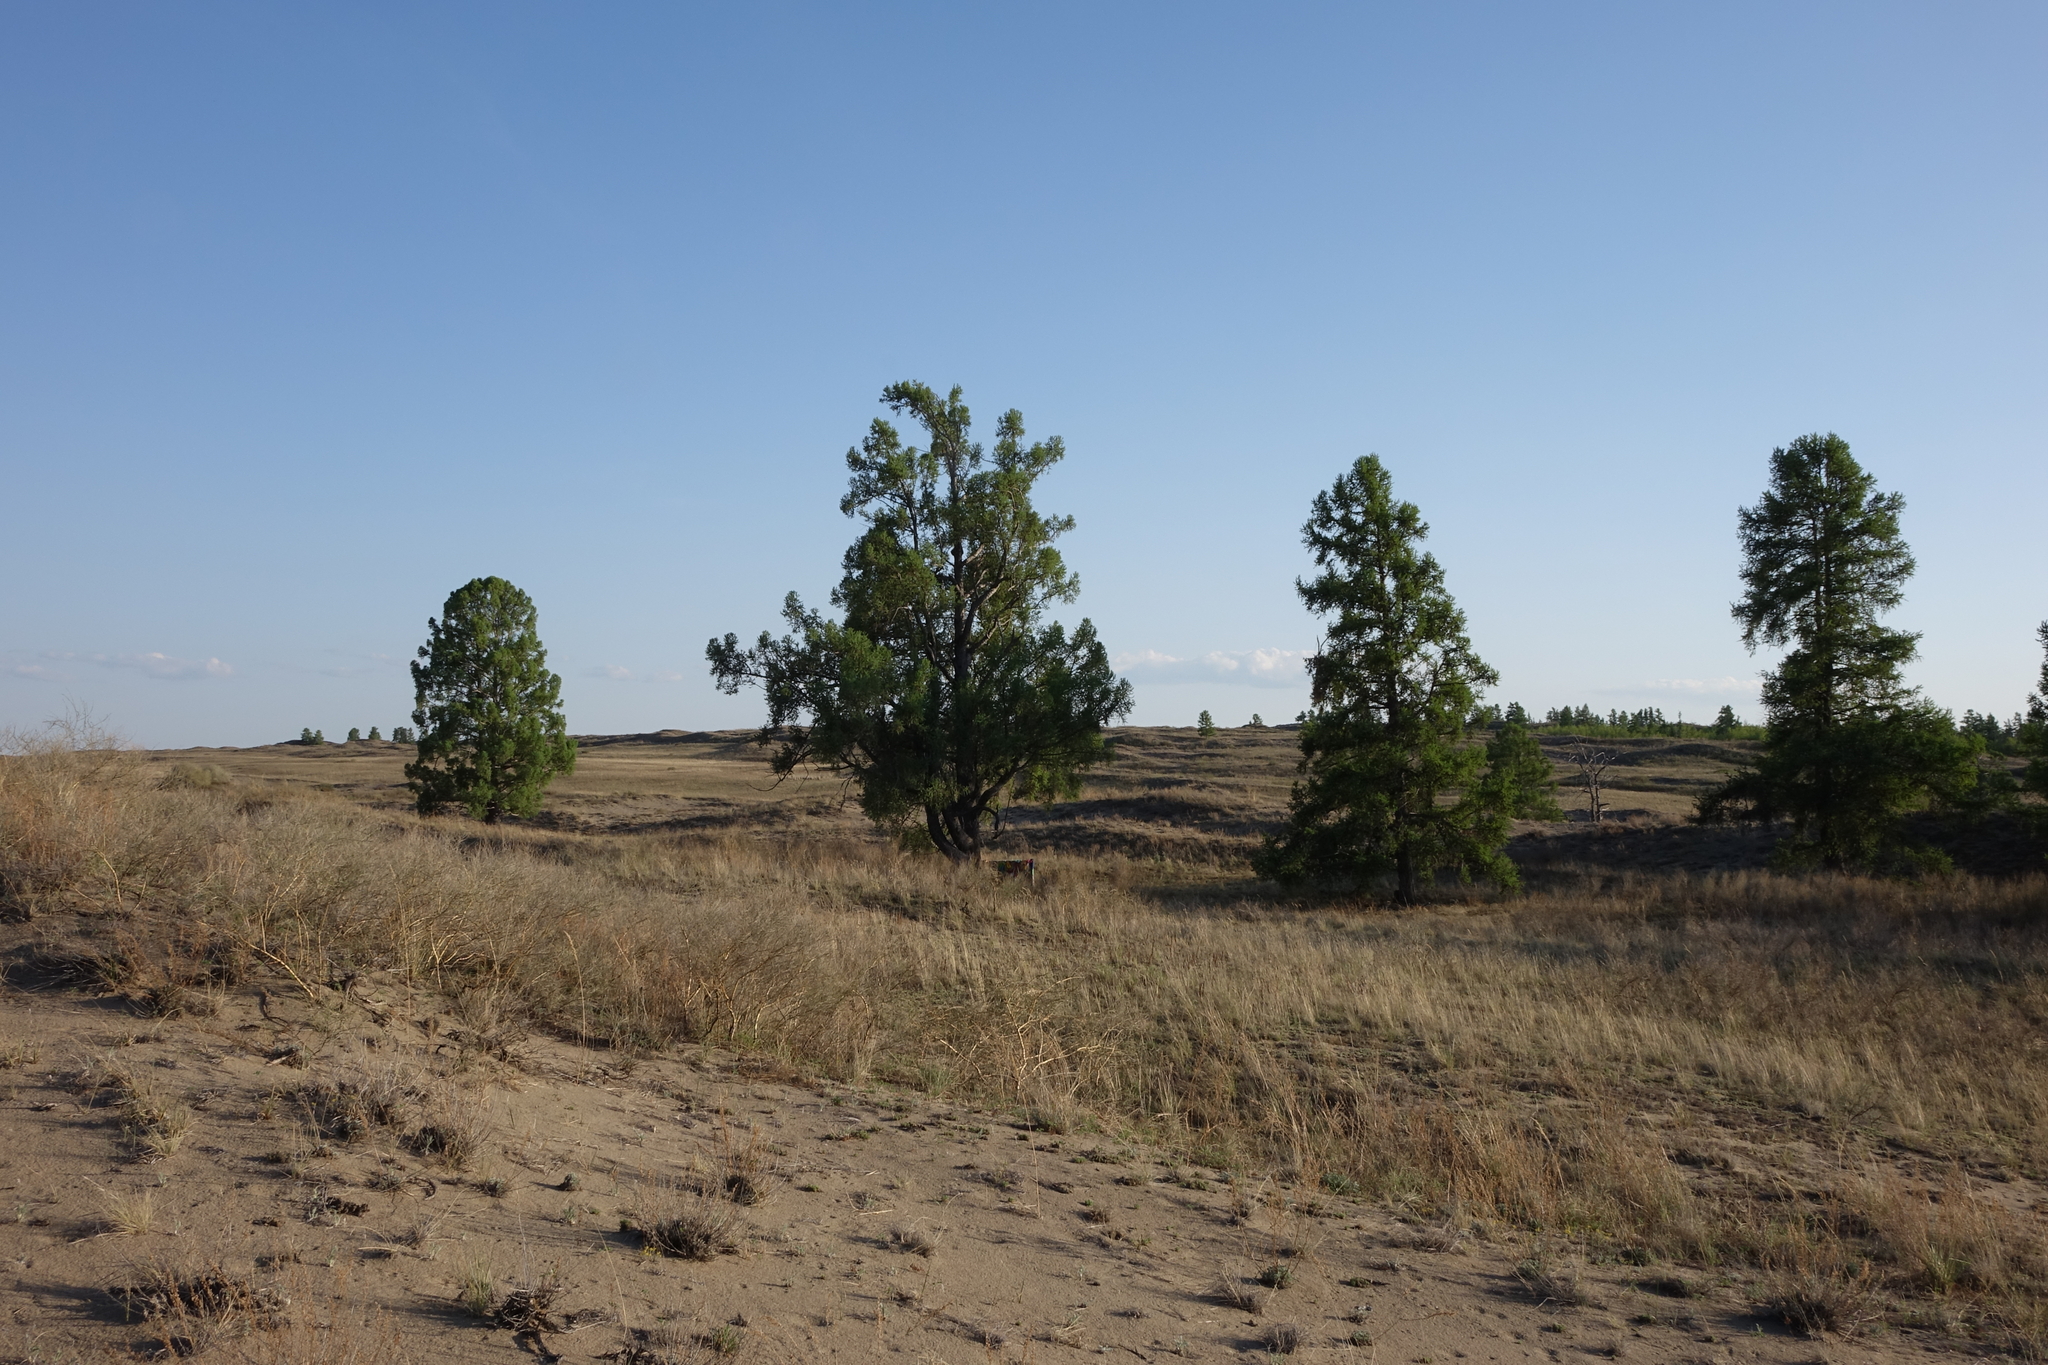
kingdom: Plantae
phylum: Tracheophyta
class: Pinopsida
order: Pinales
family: Pinaceae
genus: Larix
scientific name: Larix sibirica
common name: Siberian larch
